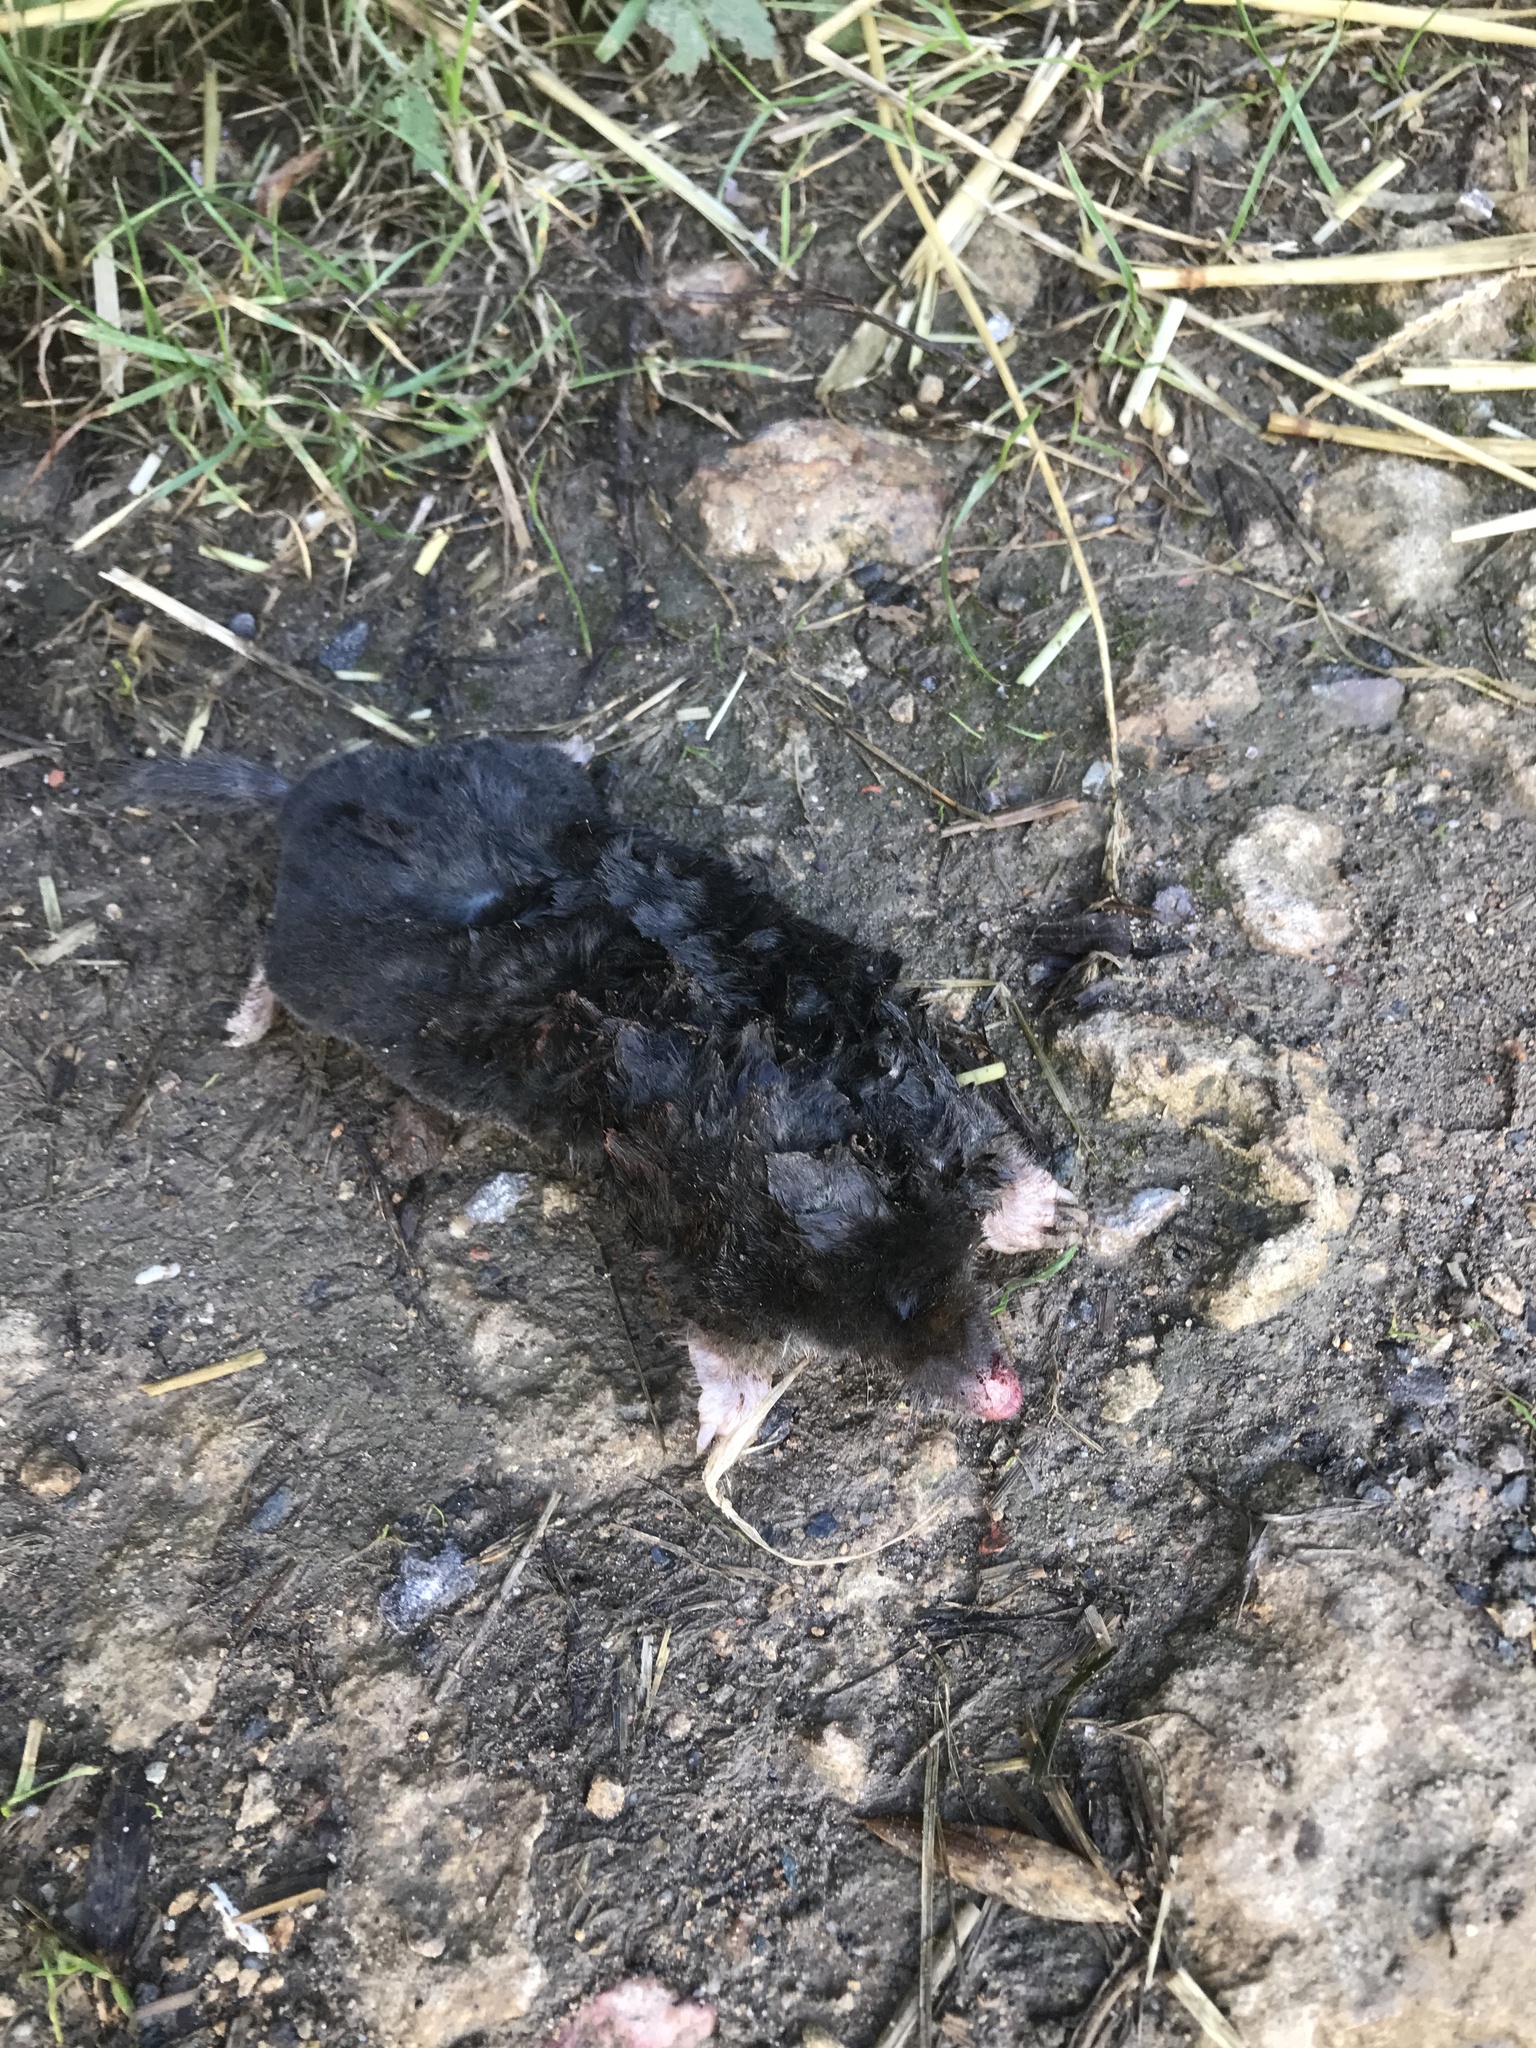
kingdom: Animalia
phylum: Chordata
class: Mammalia
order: Soricomorpha
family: Talpidae
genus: Talpa
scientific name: Talpa europaea
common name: European mole
